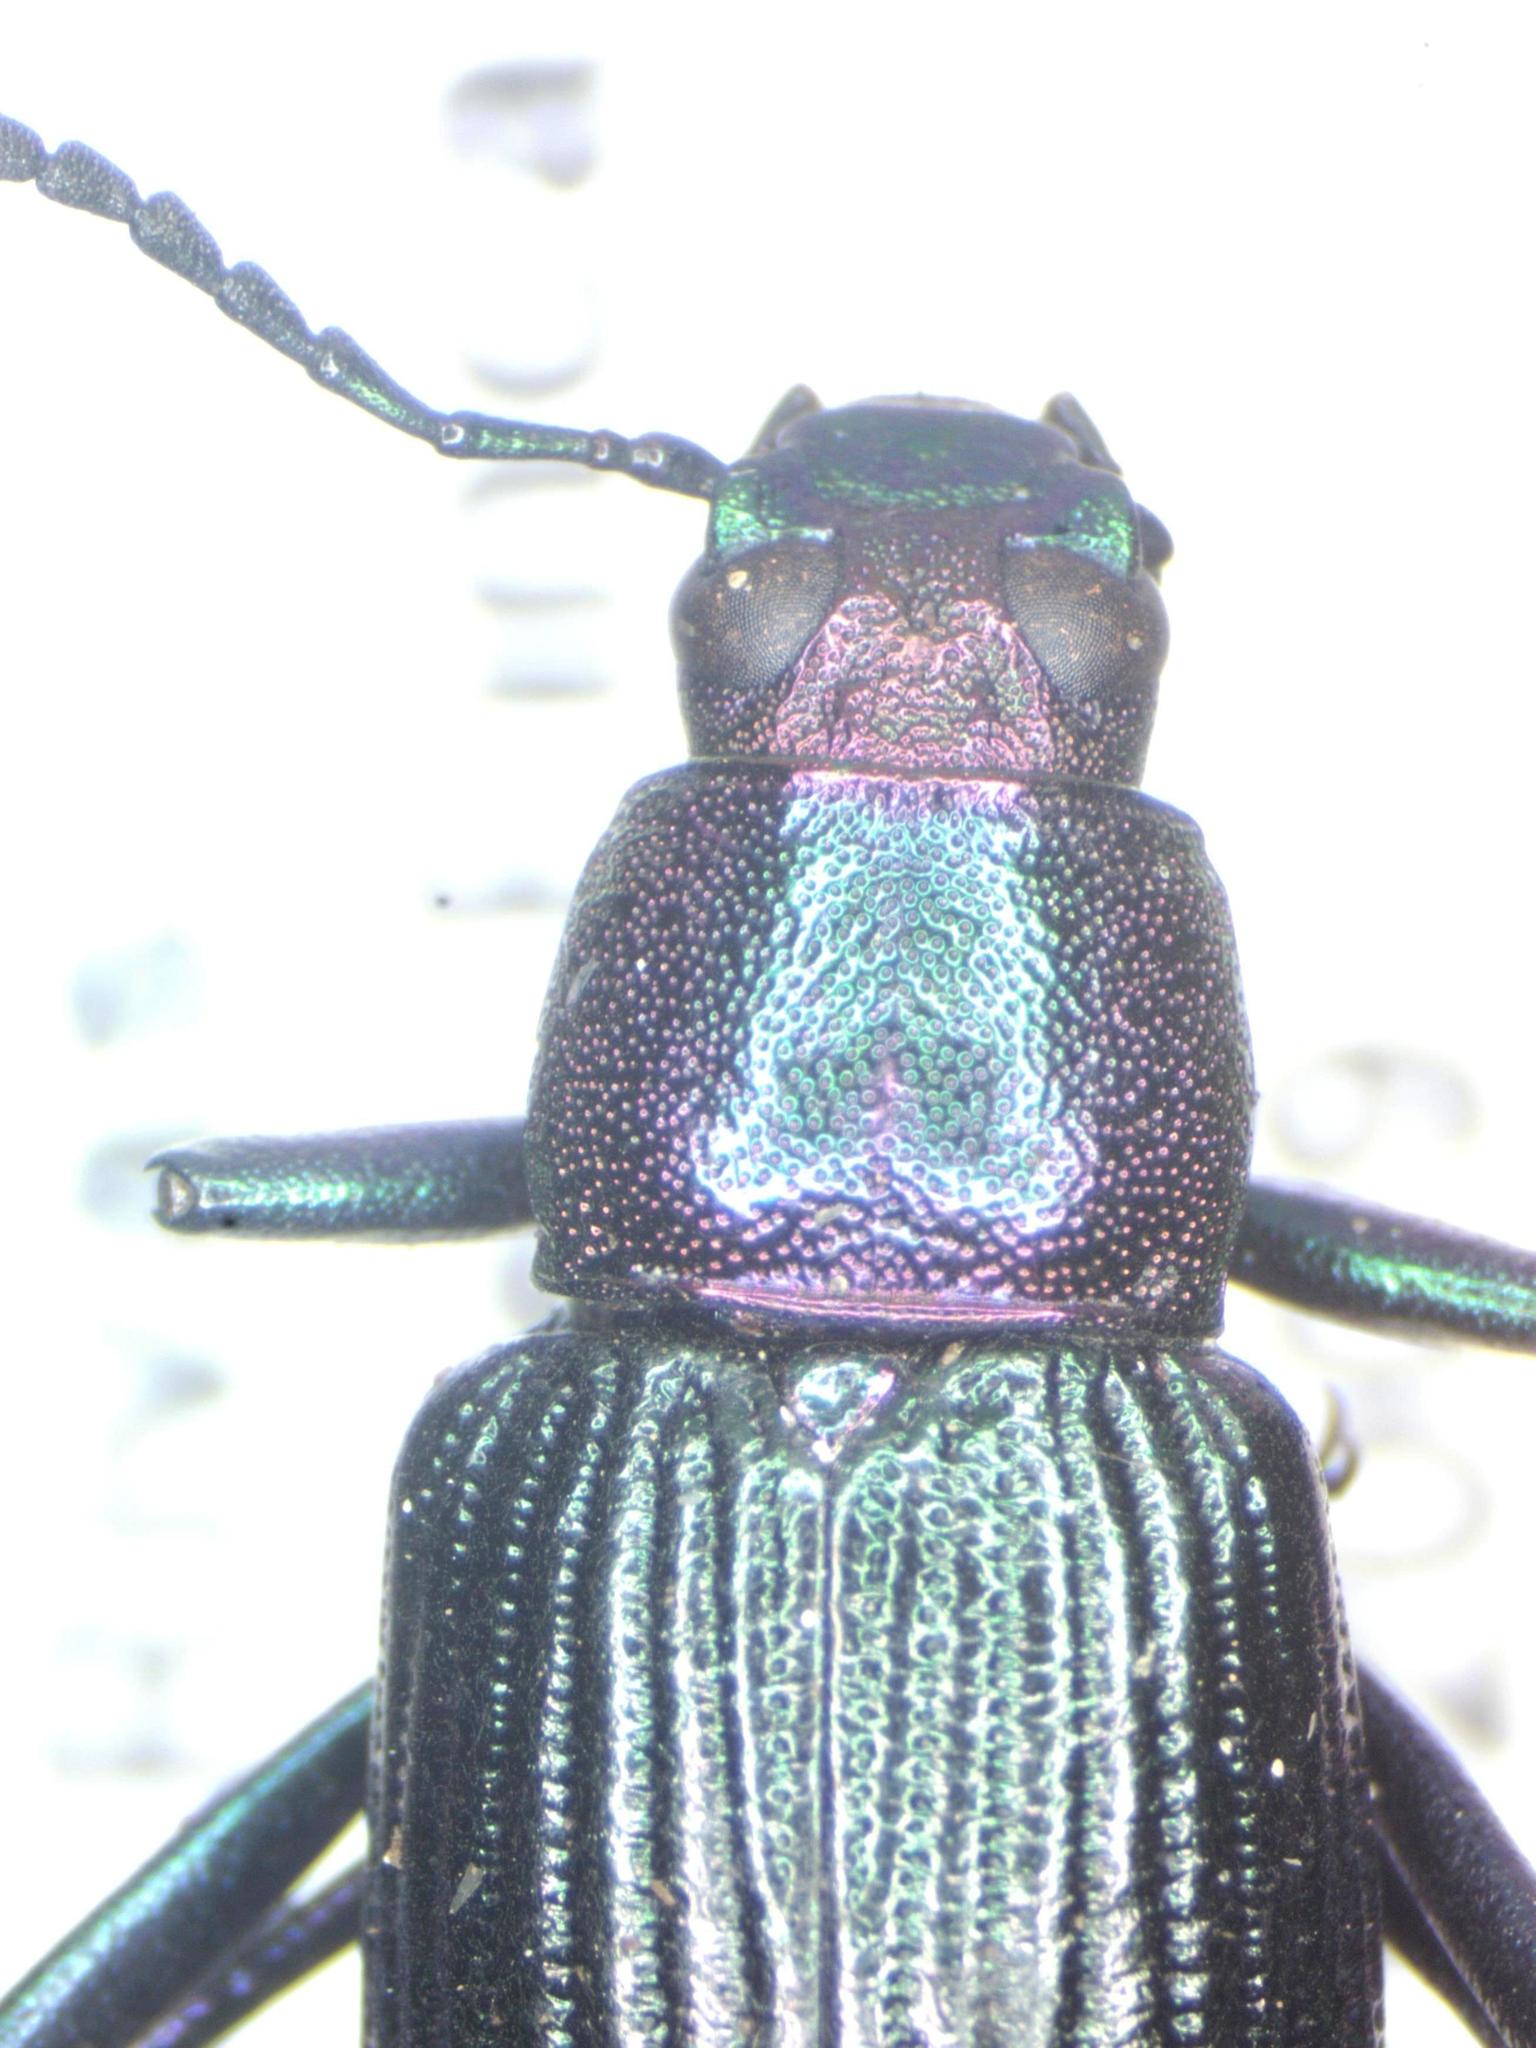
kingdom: Animalia
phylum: Arthropoda
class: Insecta
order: Coleoptera
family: Tenebrionidae
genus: Strongylium
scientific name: Strongylium auratum
